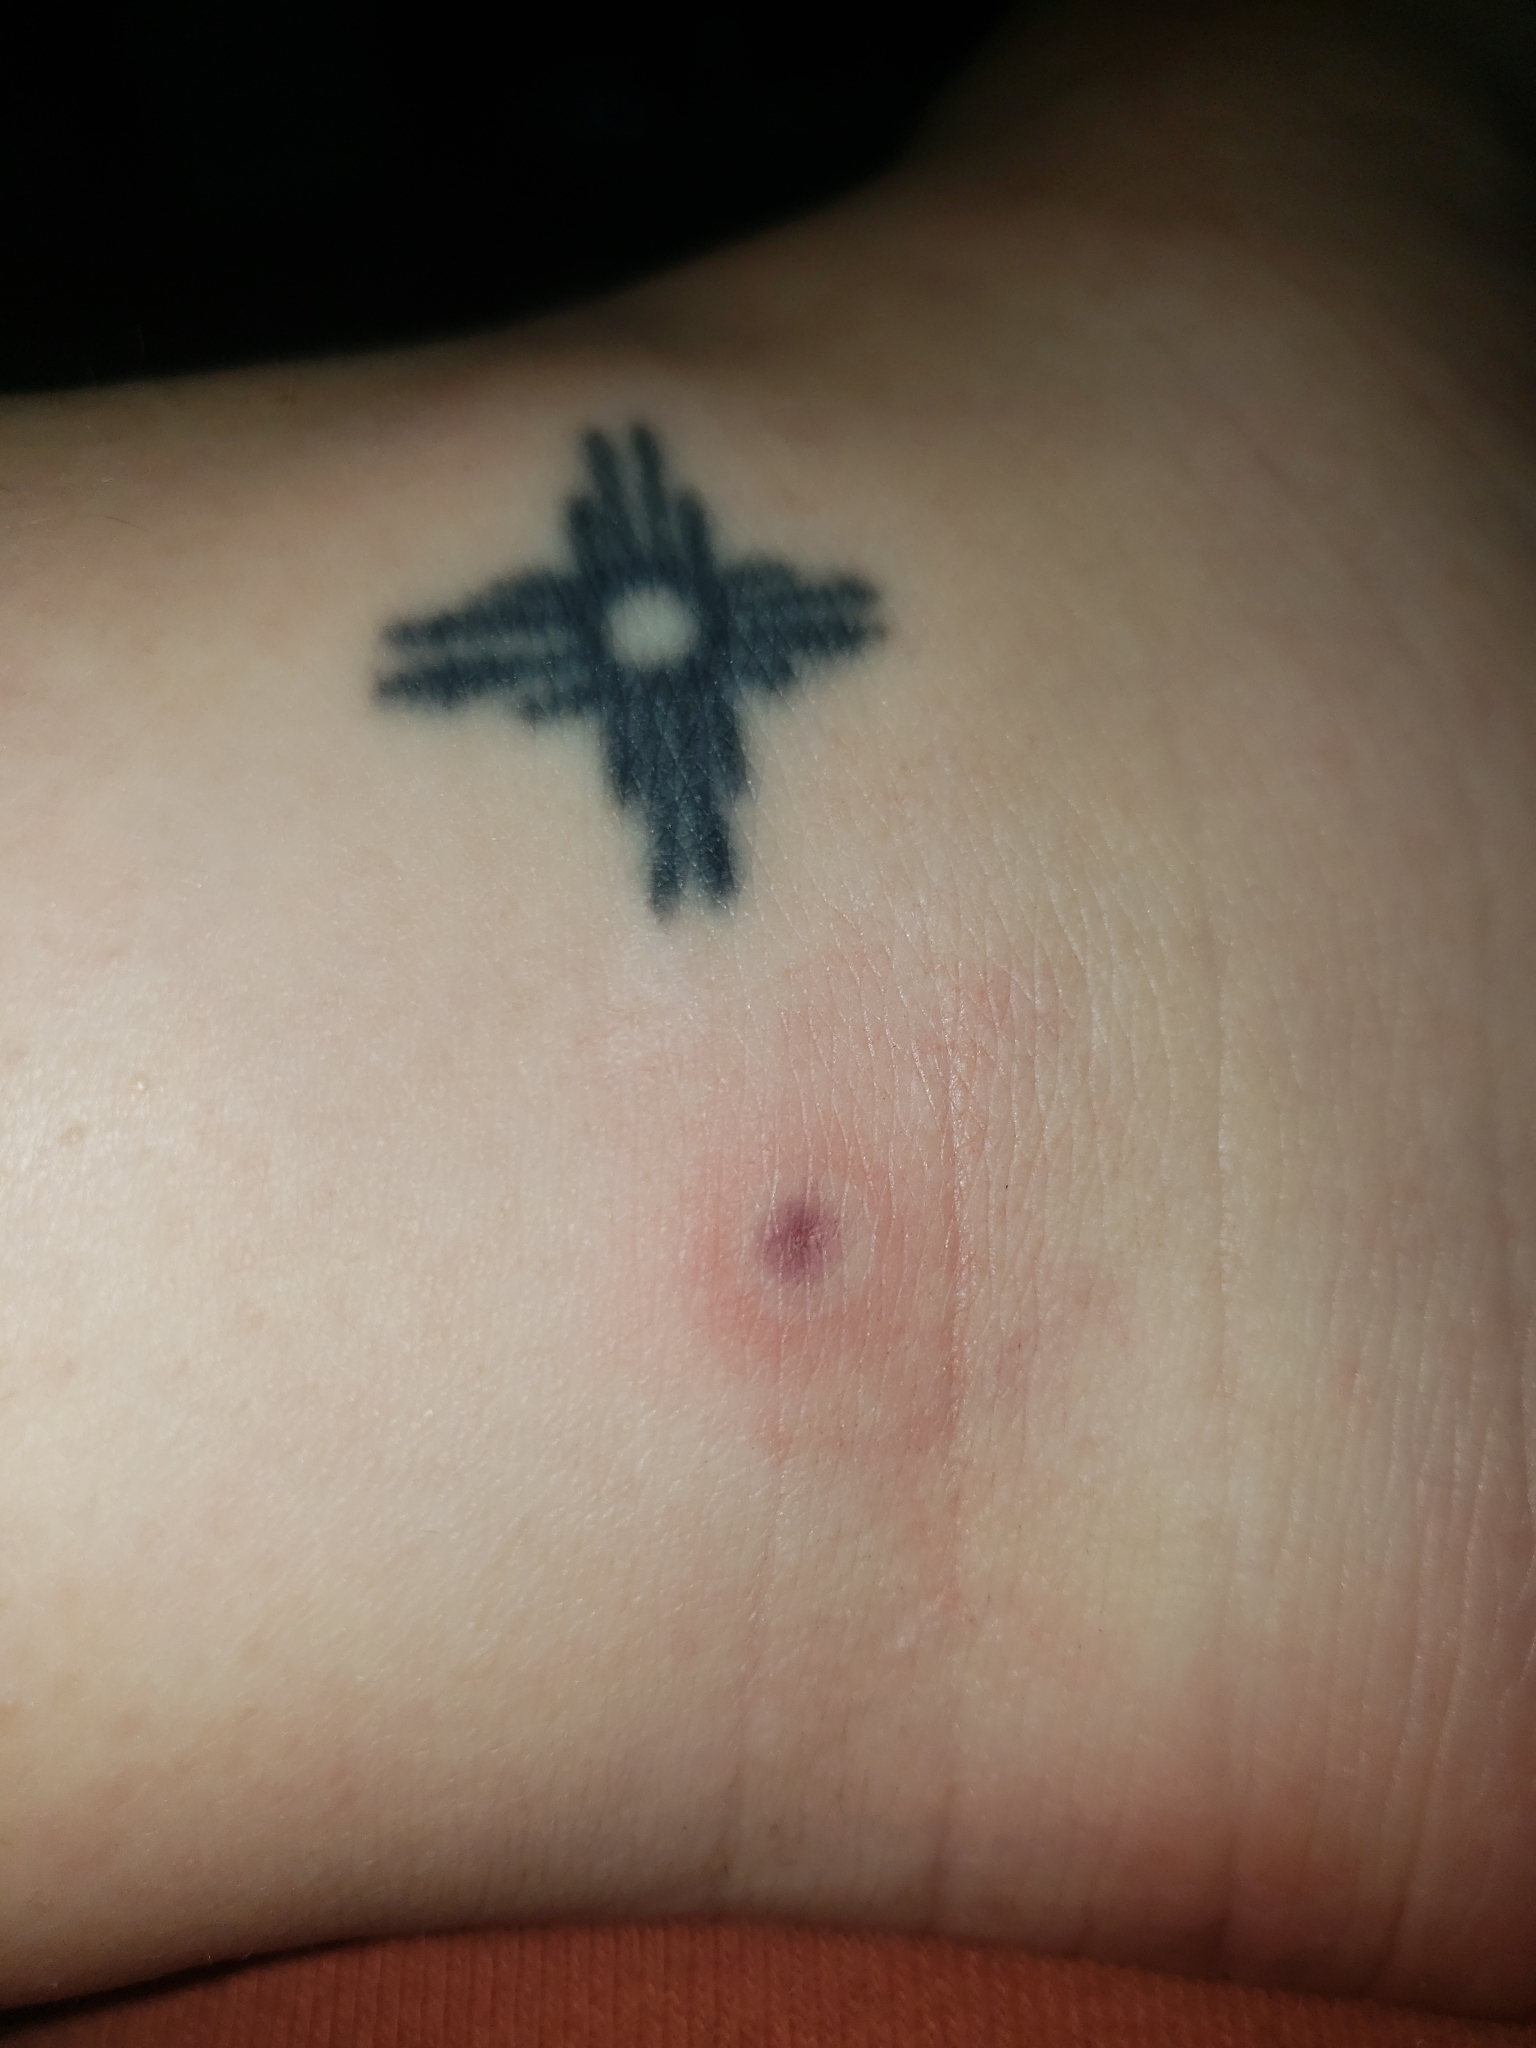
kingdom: Animalia
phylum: Arthropoda
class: Arachnida
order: Ixodida
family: Ixodidae
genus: Ixodes
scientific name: Ixodes scapularis
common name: Black legged tick
